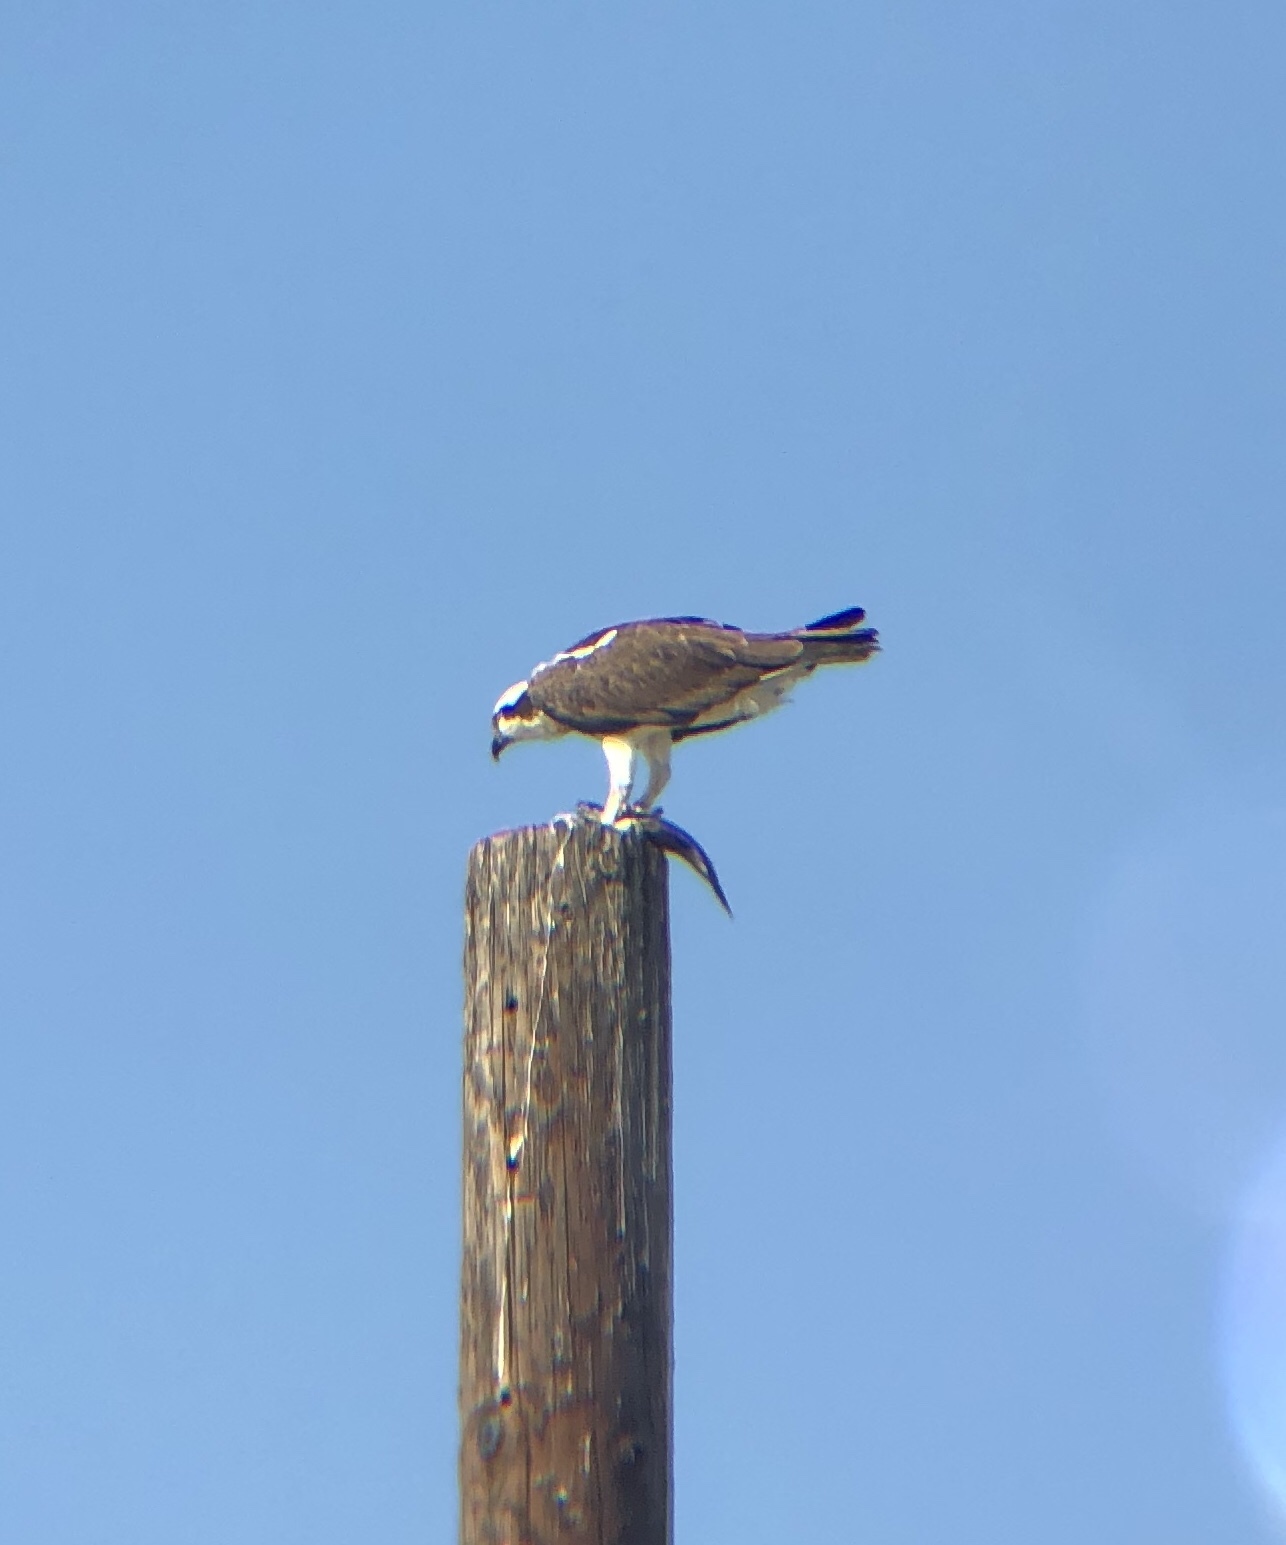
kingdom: Animalia
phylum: Chordata
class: Aves
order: Accipitriformes
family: Pandionidae
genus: Pandion
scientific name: Pandion haliaetus
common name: Osprey
